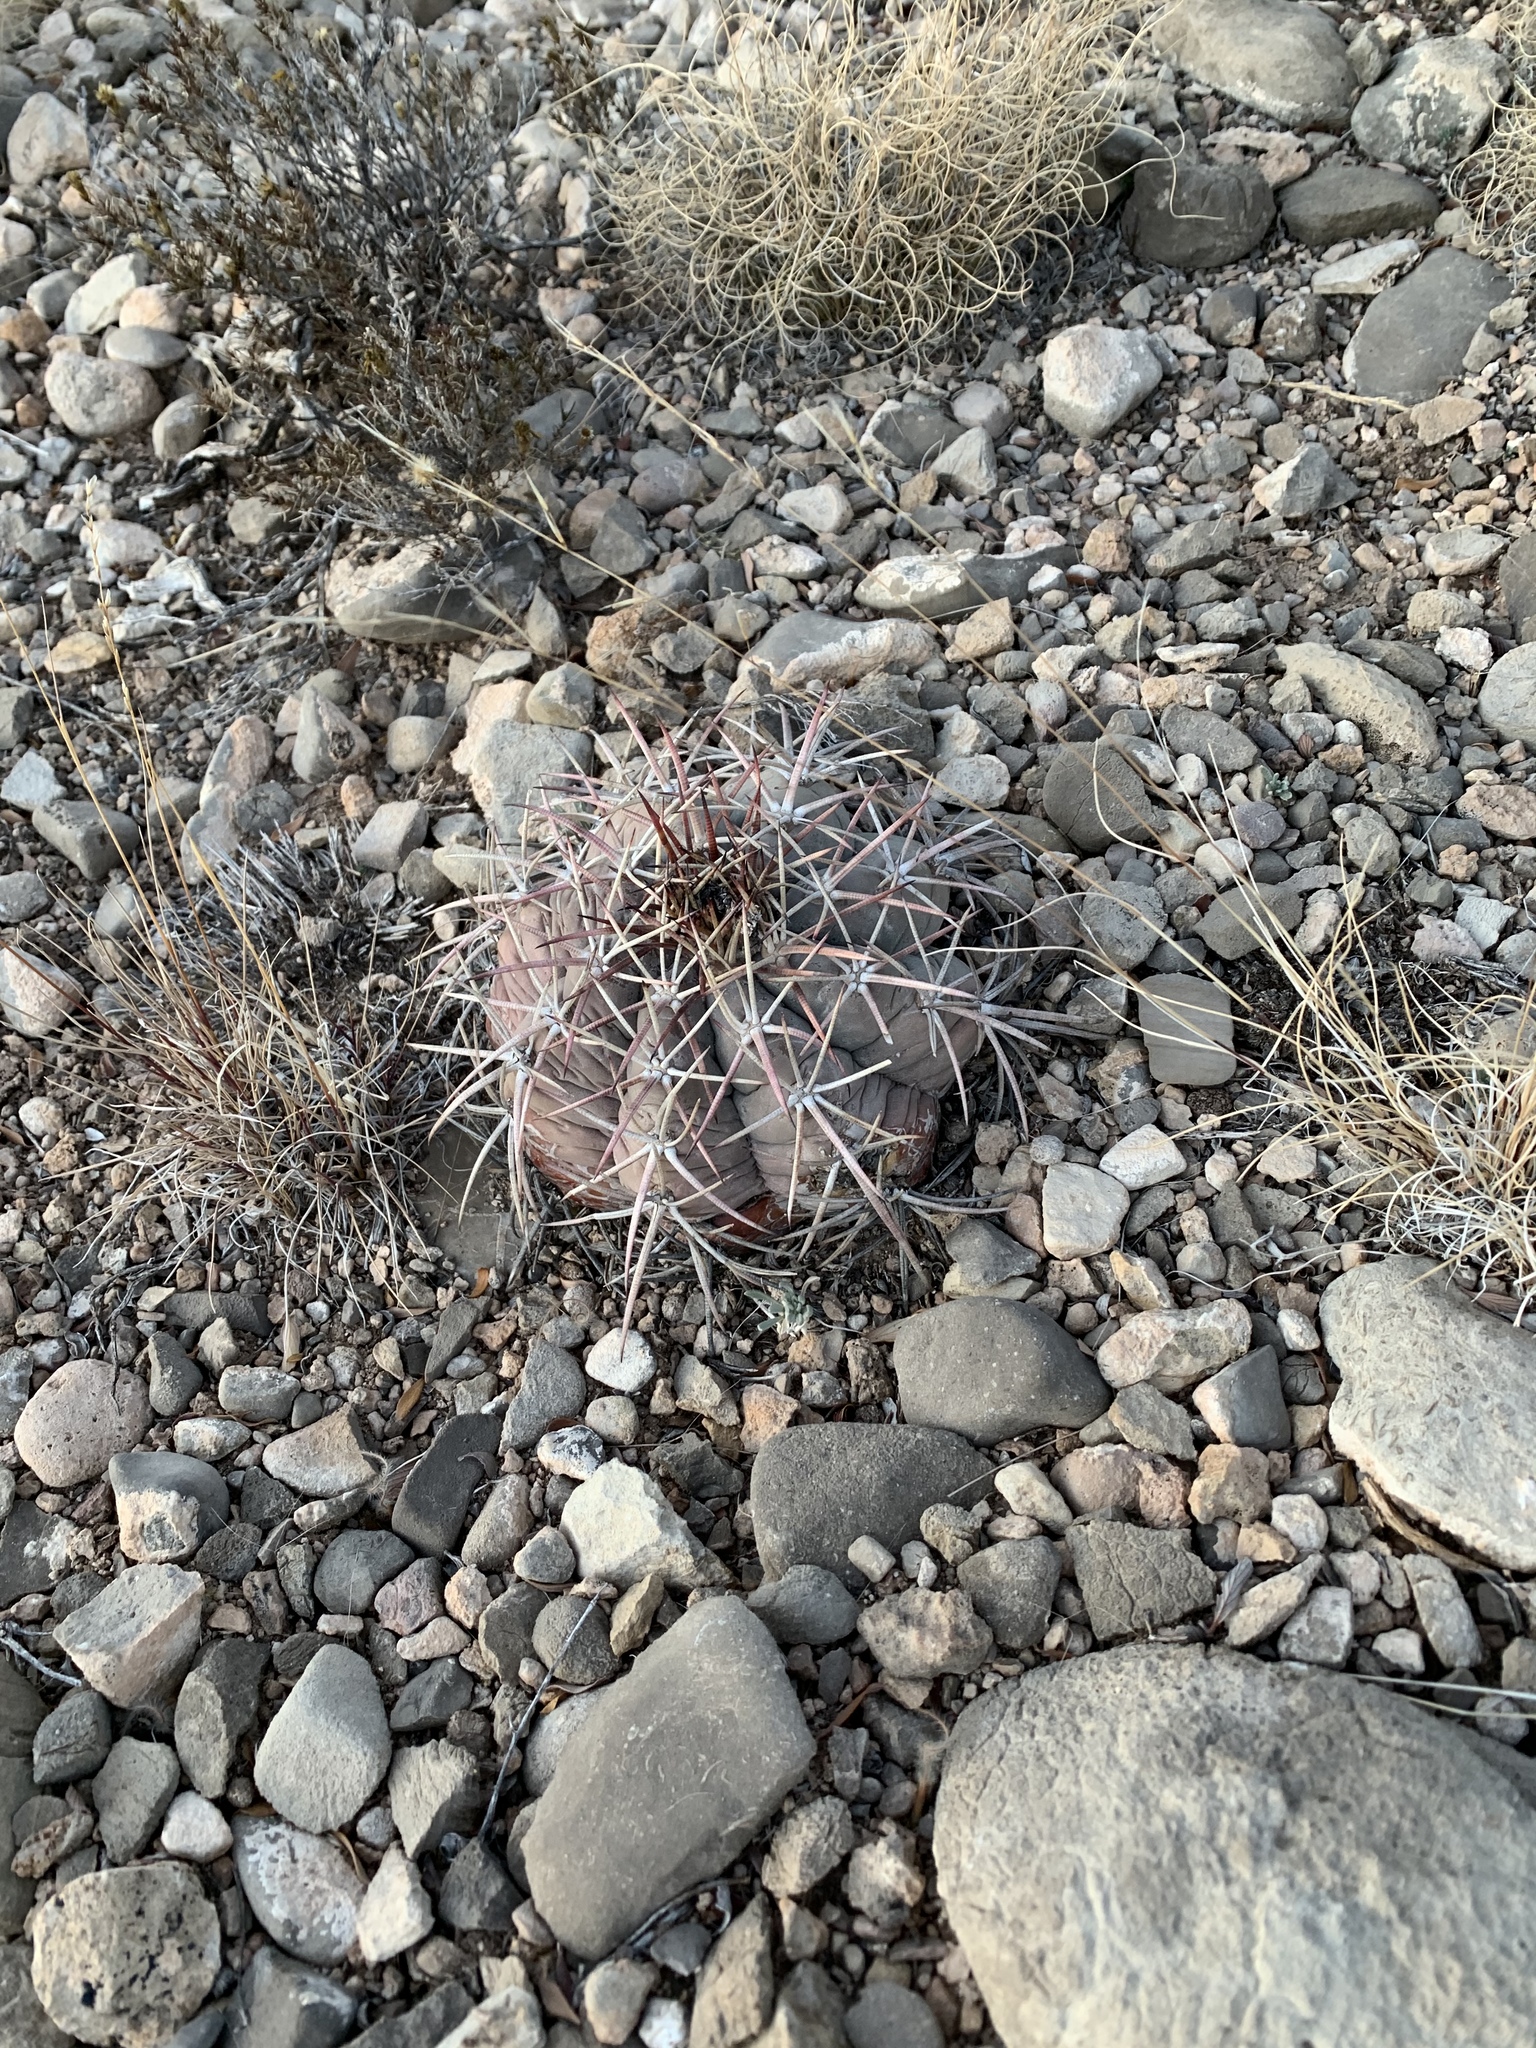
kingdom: Plantae
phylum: Tracheophyta
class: Magnoliopsida
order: Caryophyllales
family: Cactaceae
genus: Echinocactus
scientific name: Echinocactus horizonthalonius
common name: Devilshead
